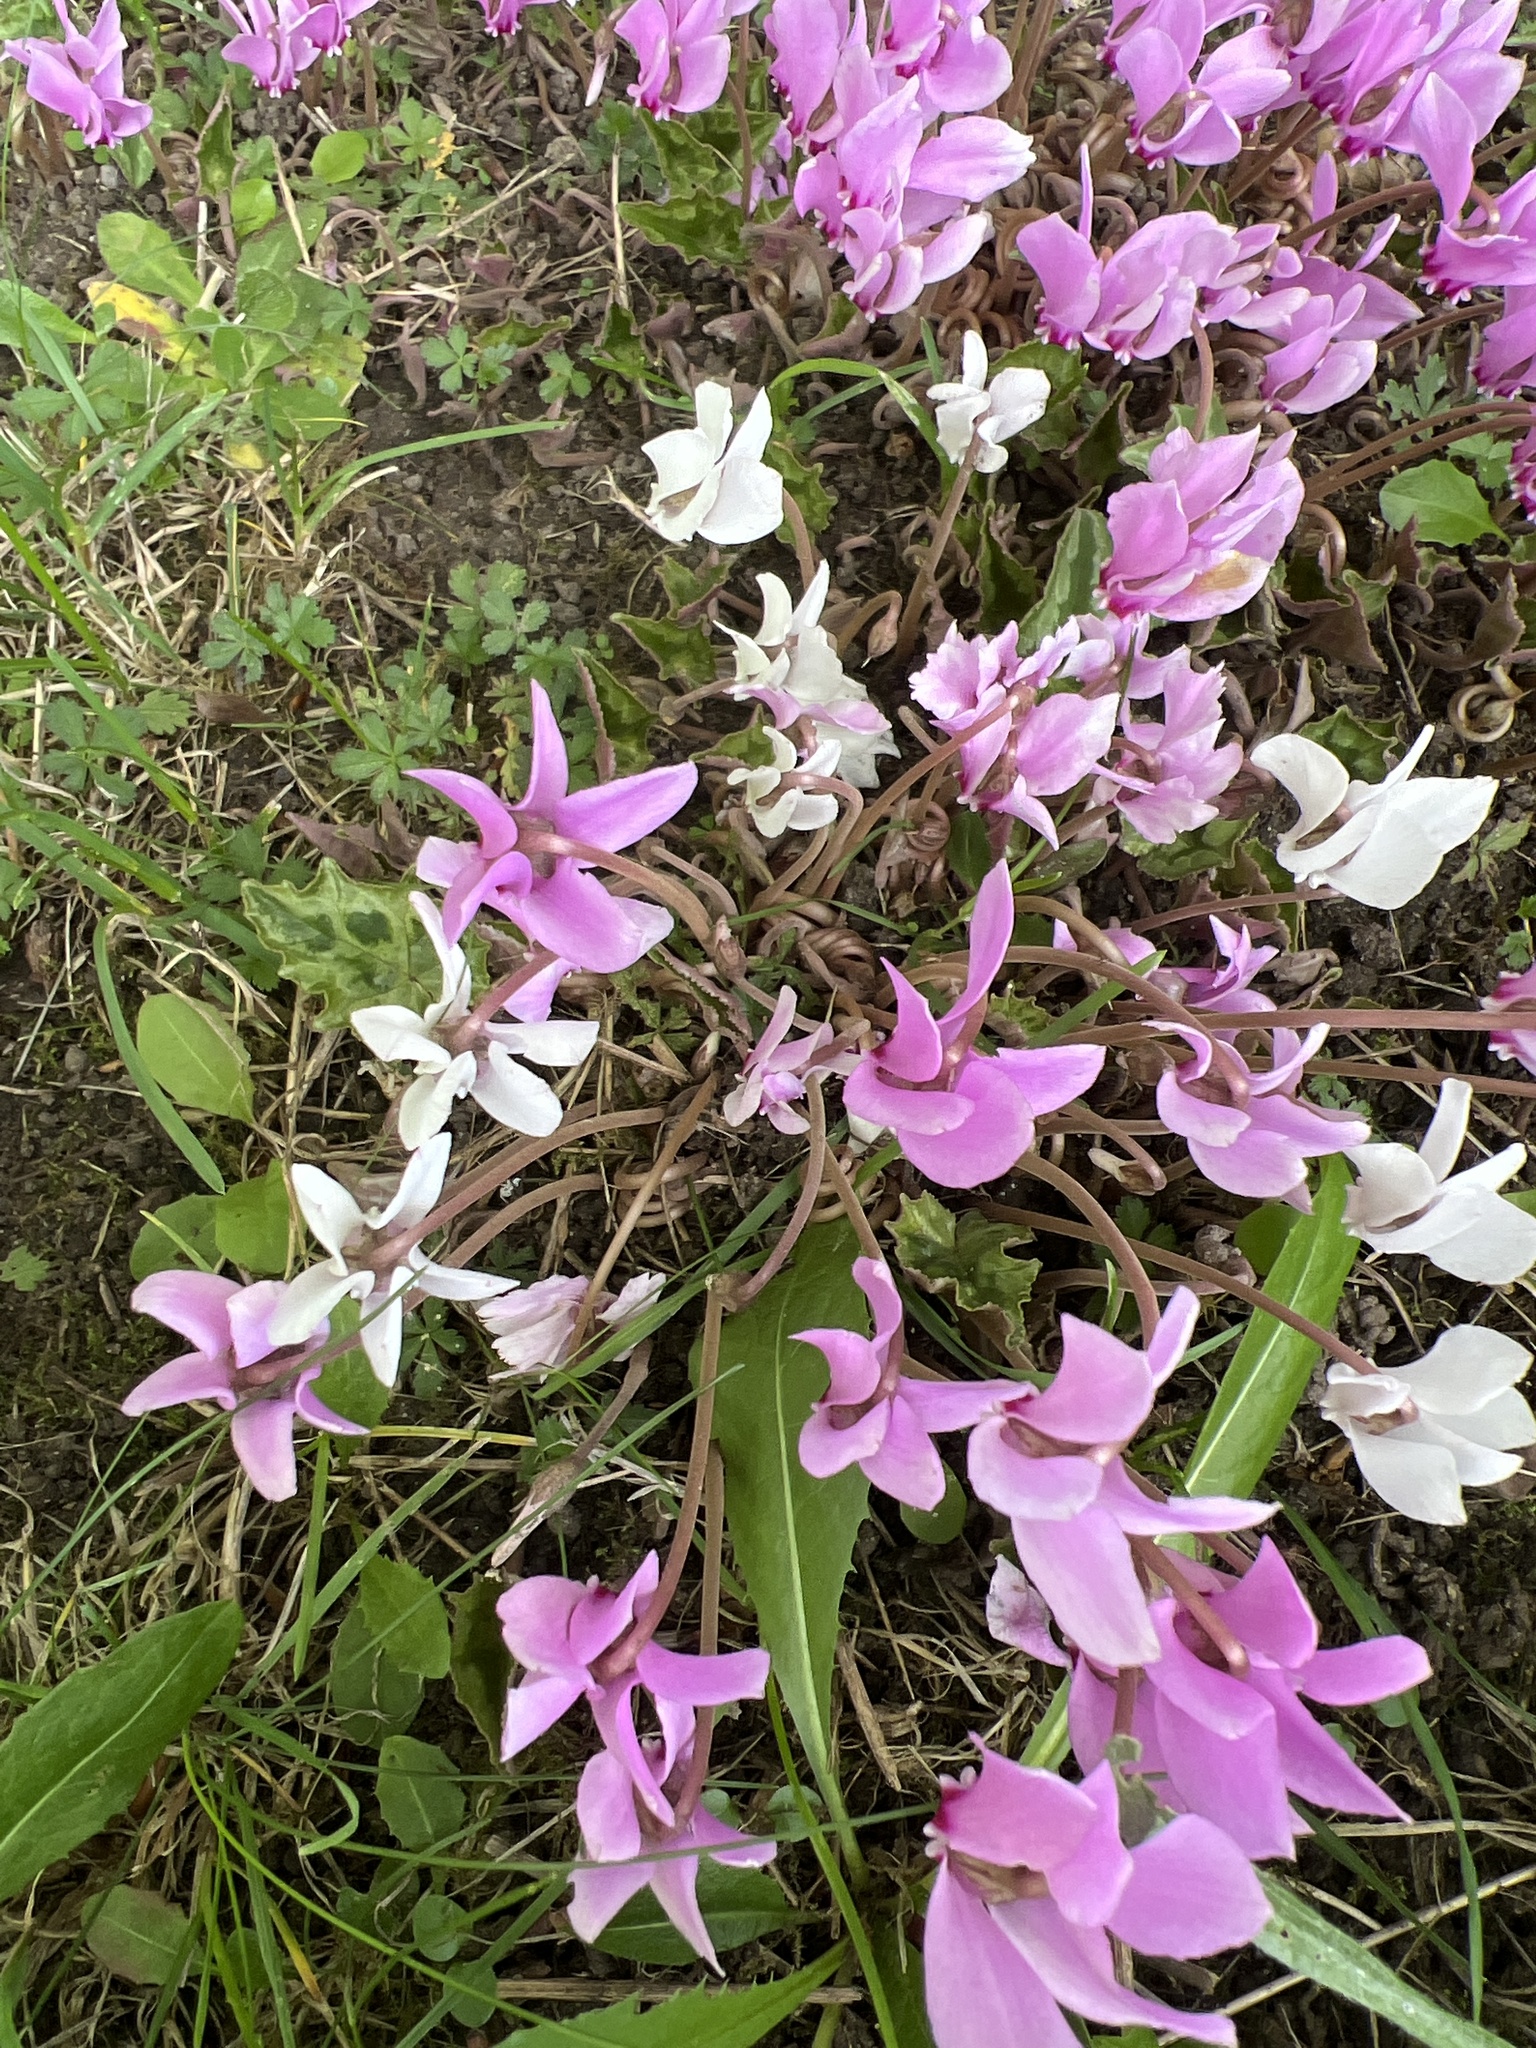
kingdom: Plantae
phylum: Tracheophyta
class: Magnoliopsida
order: Ericales
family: Primulaceae
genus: Cyclamen
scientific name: Cyclamen hederifolium
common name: Sowbread
